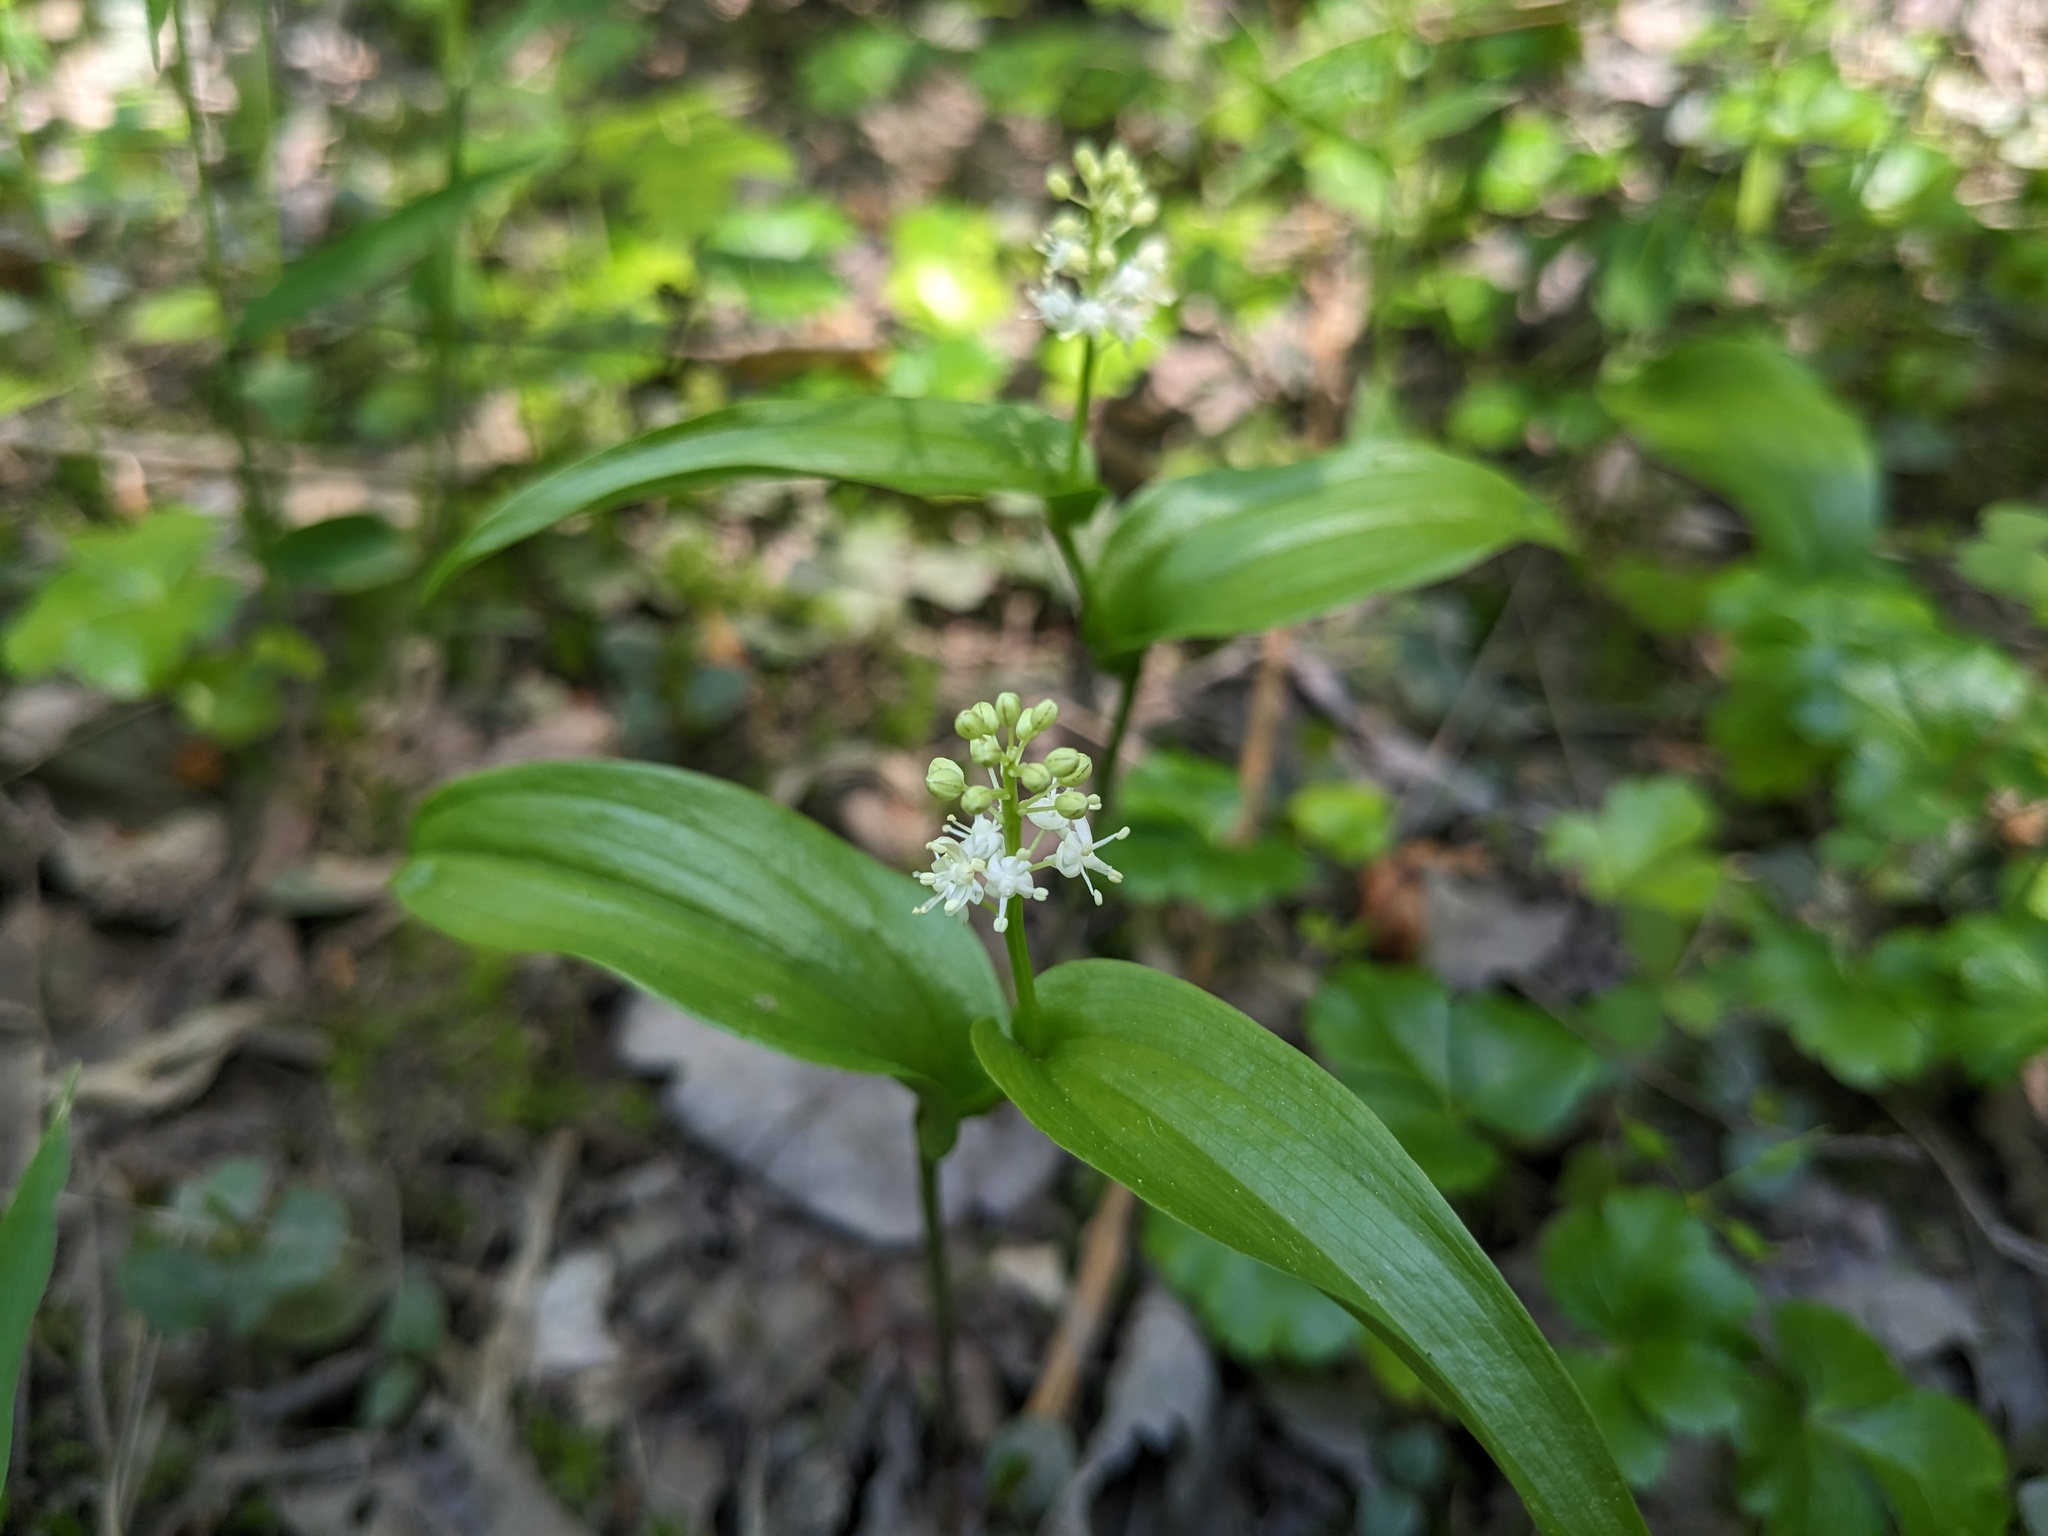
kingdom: Plantae
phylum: Tracheophyta
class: Liliopsida
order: Asparagales
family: Asparagaceae
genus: Maianthemum
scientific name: Maianthemum canadense
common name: False lily-of-the-valley
